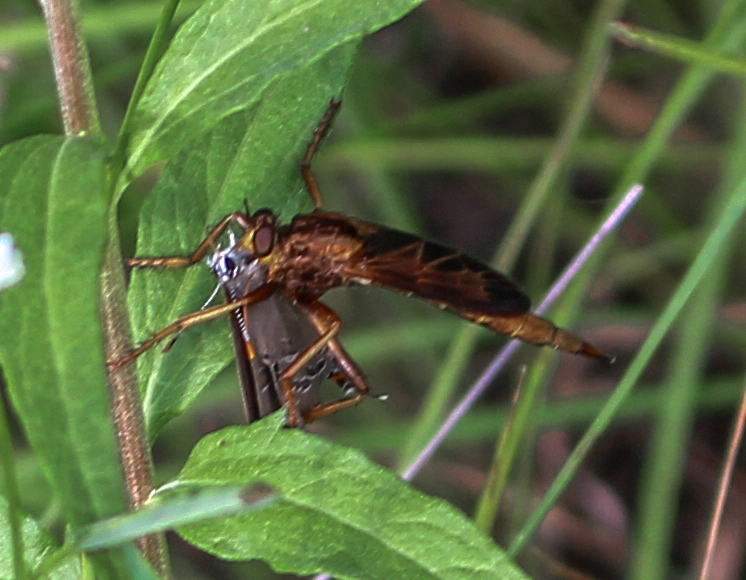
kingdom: Animalia
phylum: Arthropoda
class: Insecta
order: Diptera
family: Asilidae
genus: Asilus
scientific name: Asilus sericeus
